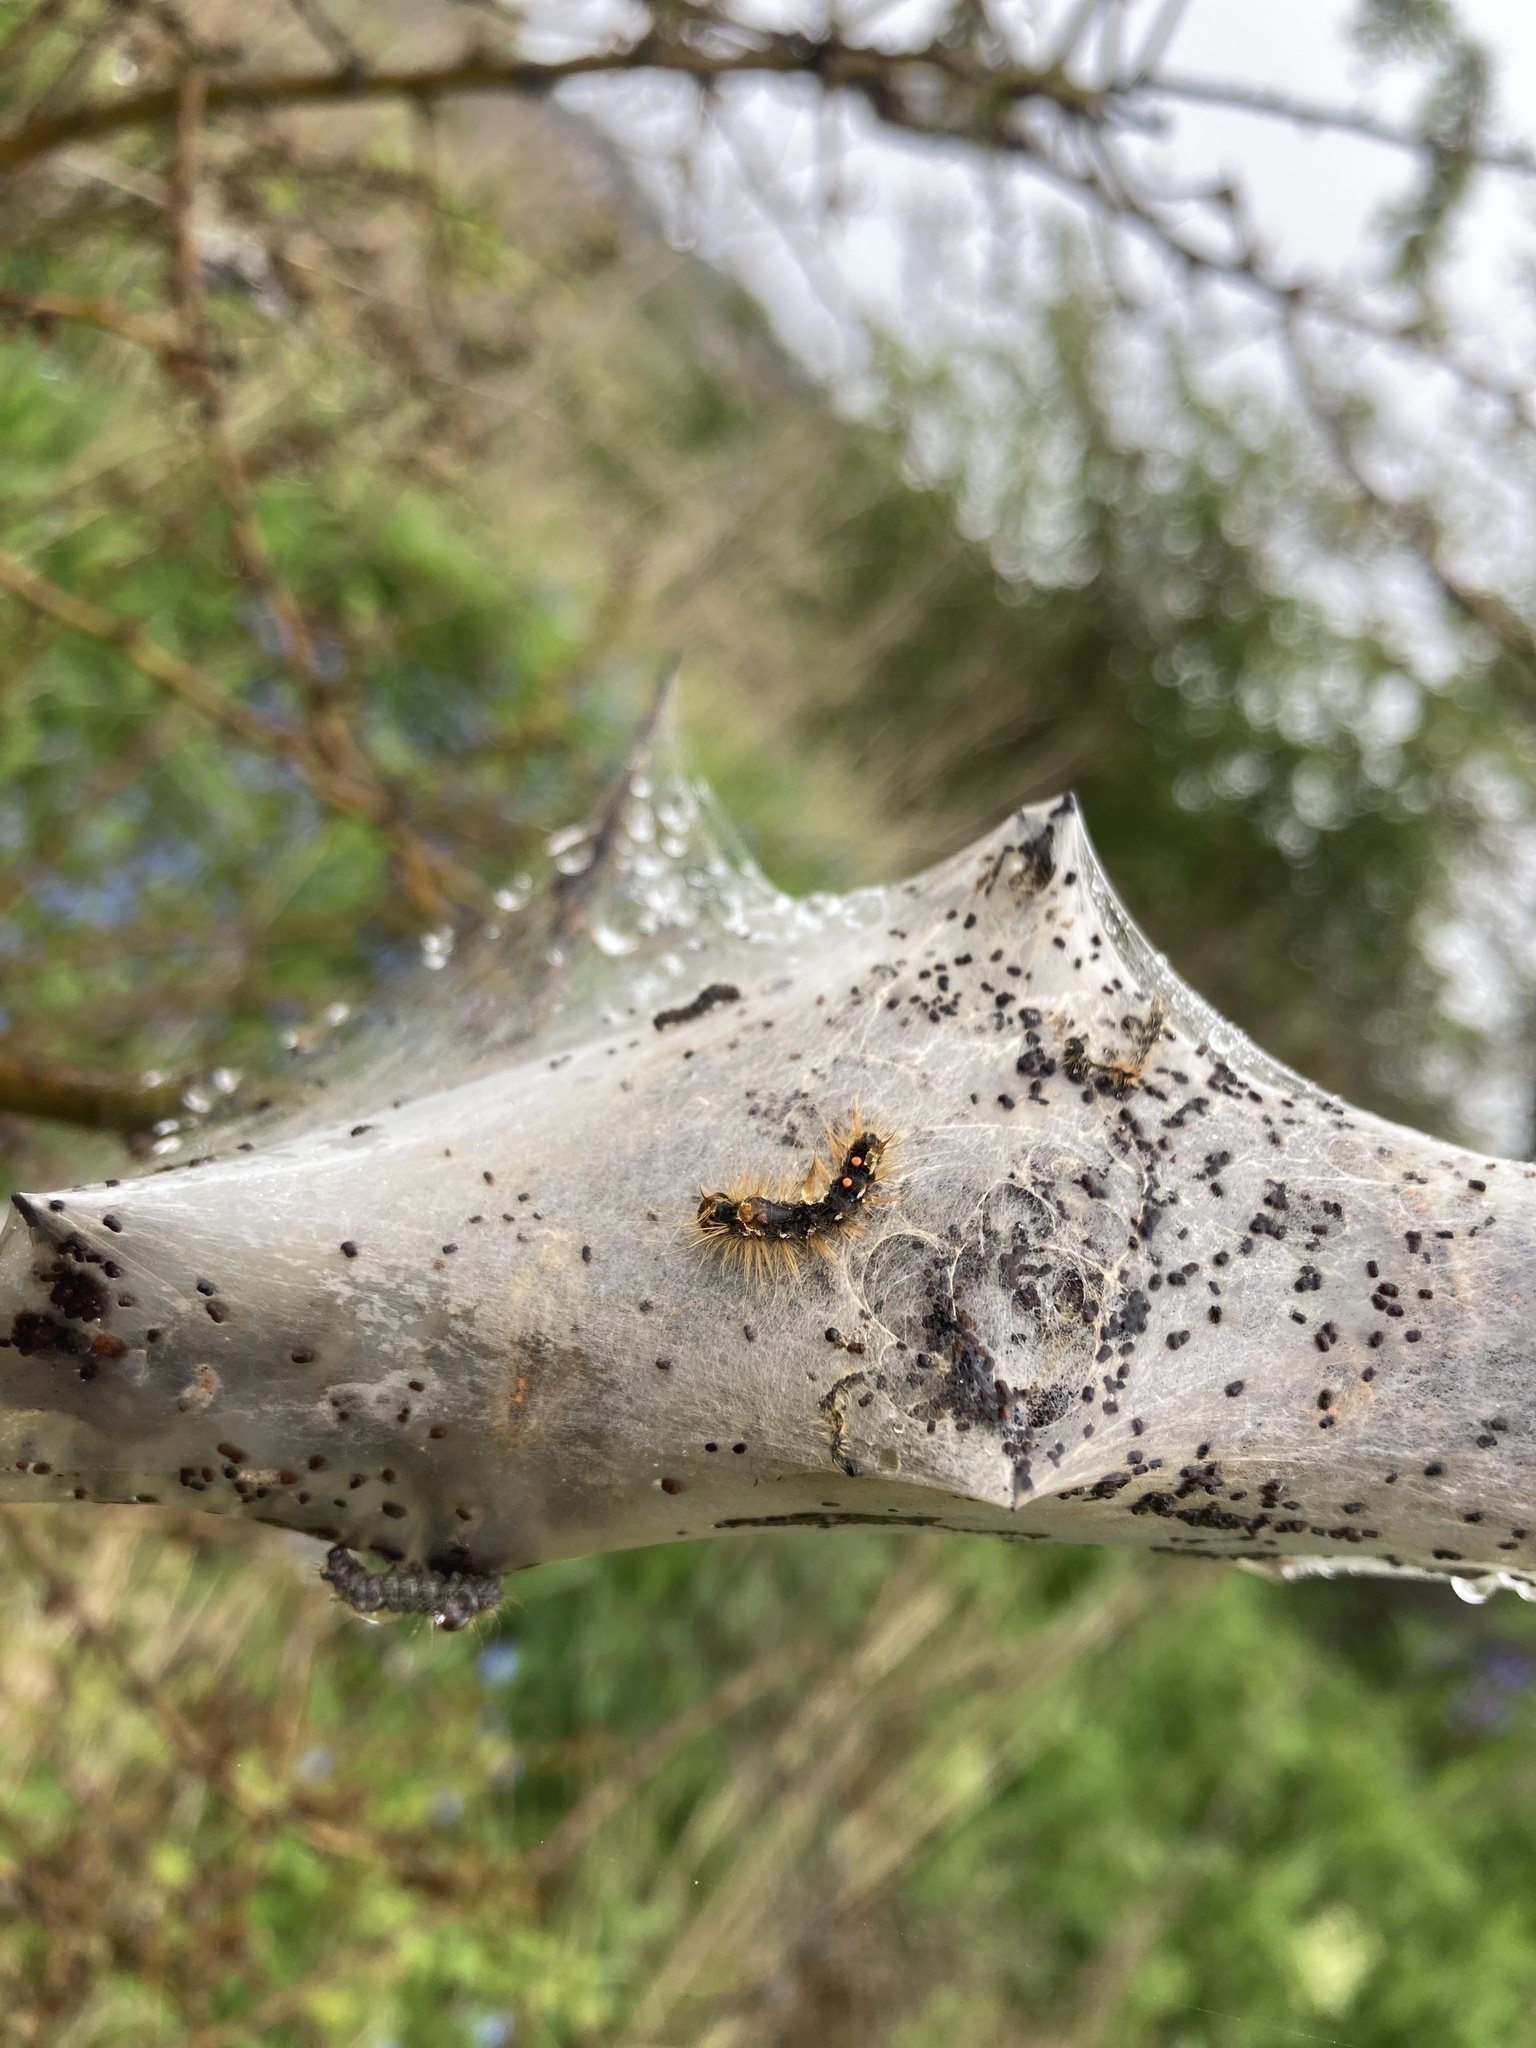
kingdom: Animalia
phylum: Arthropoda
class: Insecta
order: Lepidoptera
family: Erebidae
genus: Euproctis
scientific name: Euproctis chrysorrhoea
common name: Brown-tail
